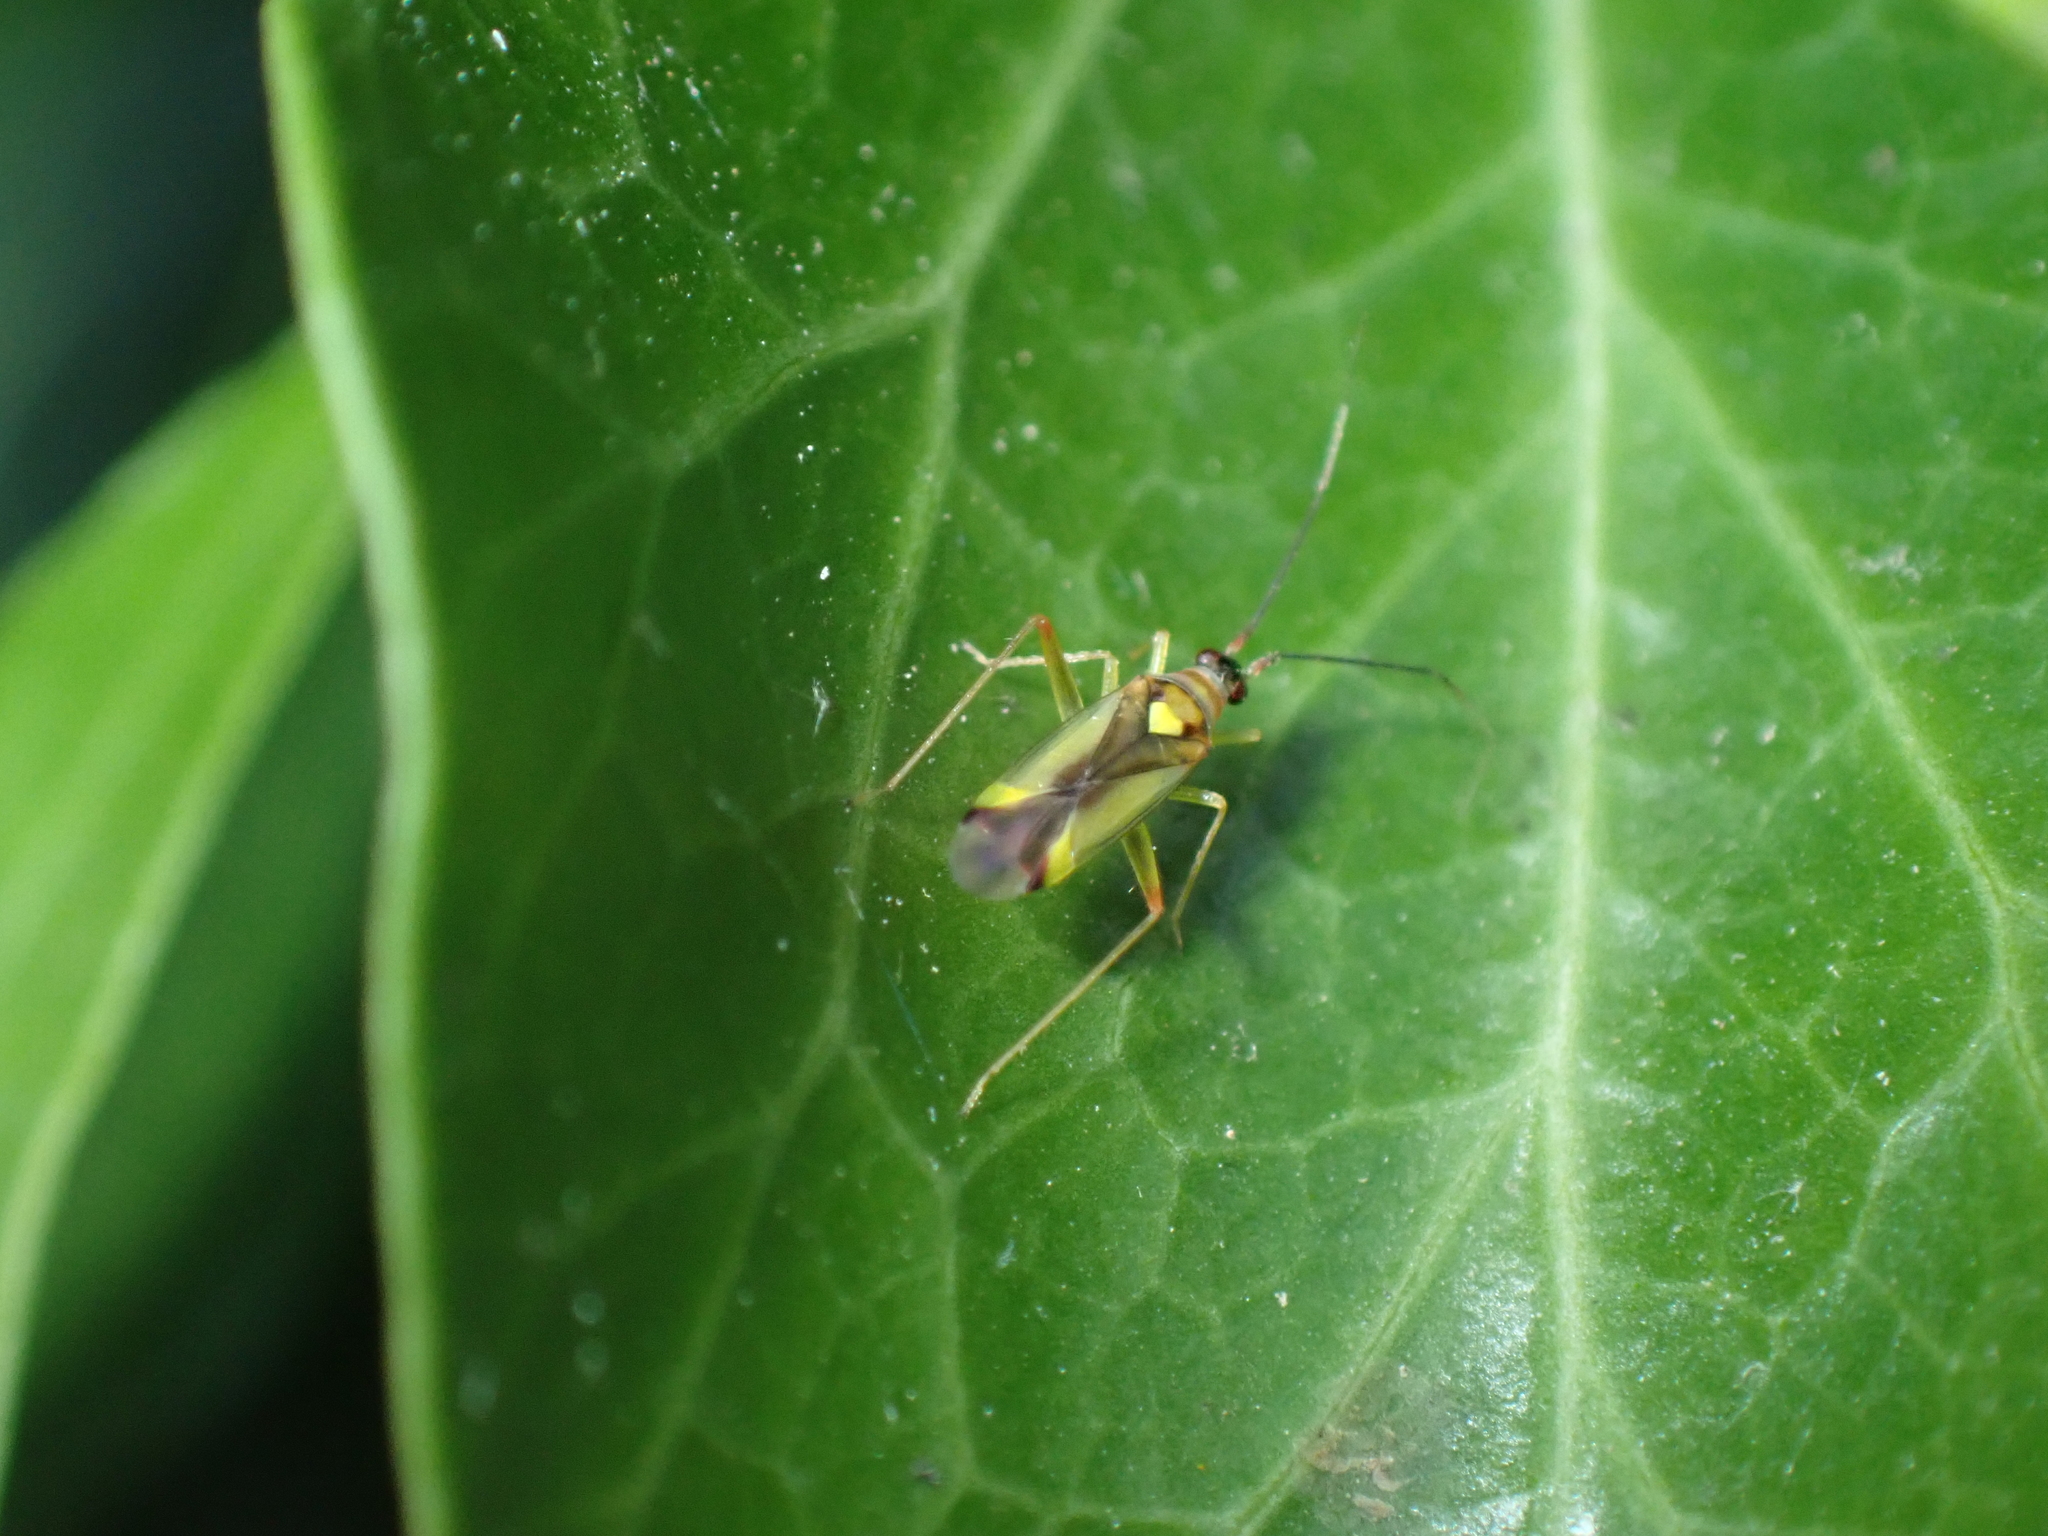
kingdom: Animalia
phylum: Arthropoda
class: Insecta
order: Hemiptera
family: Miridae
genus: Campyloneura
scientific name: Campyloneura virgula
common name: Predatory bug
